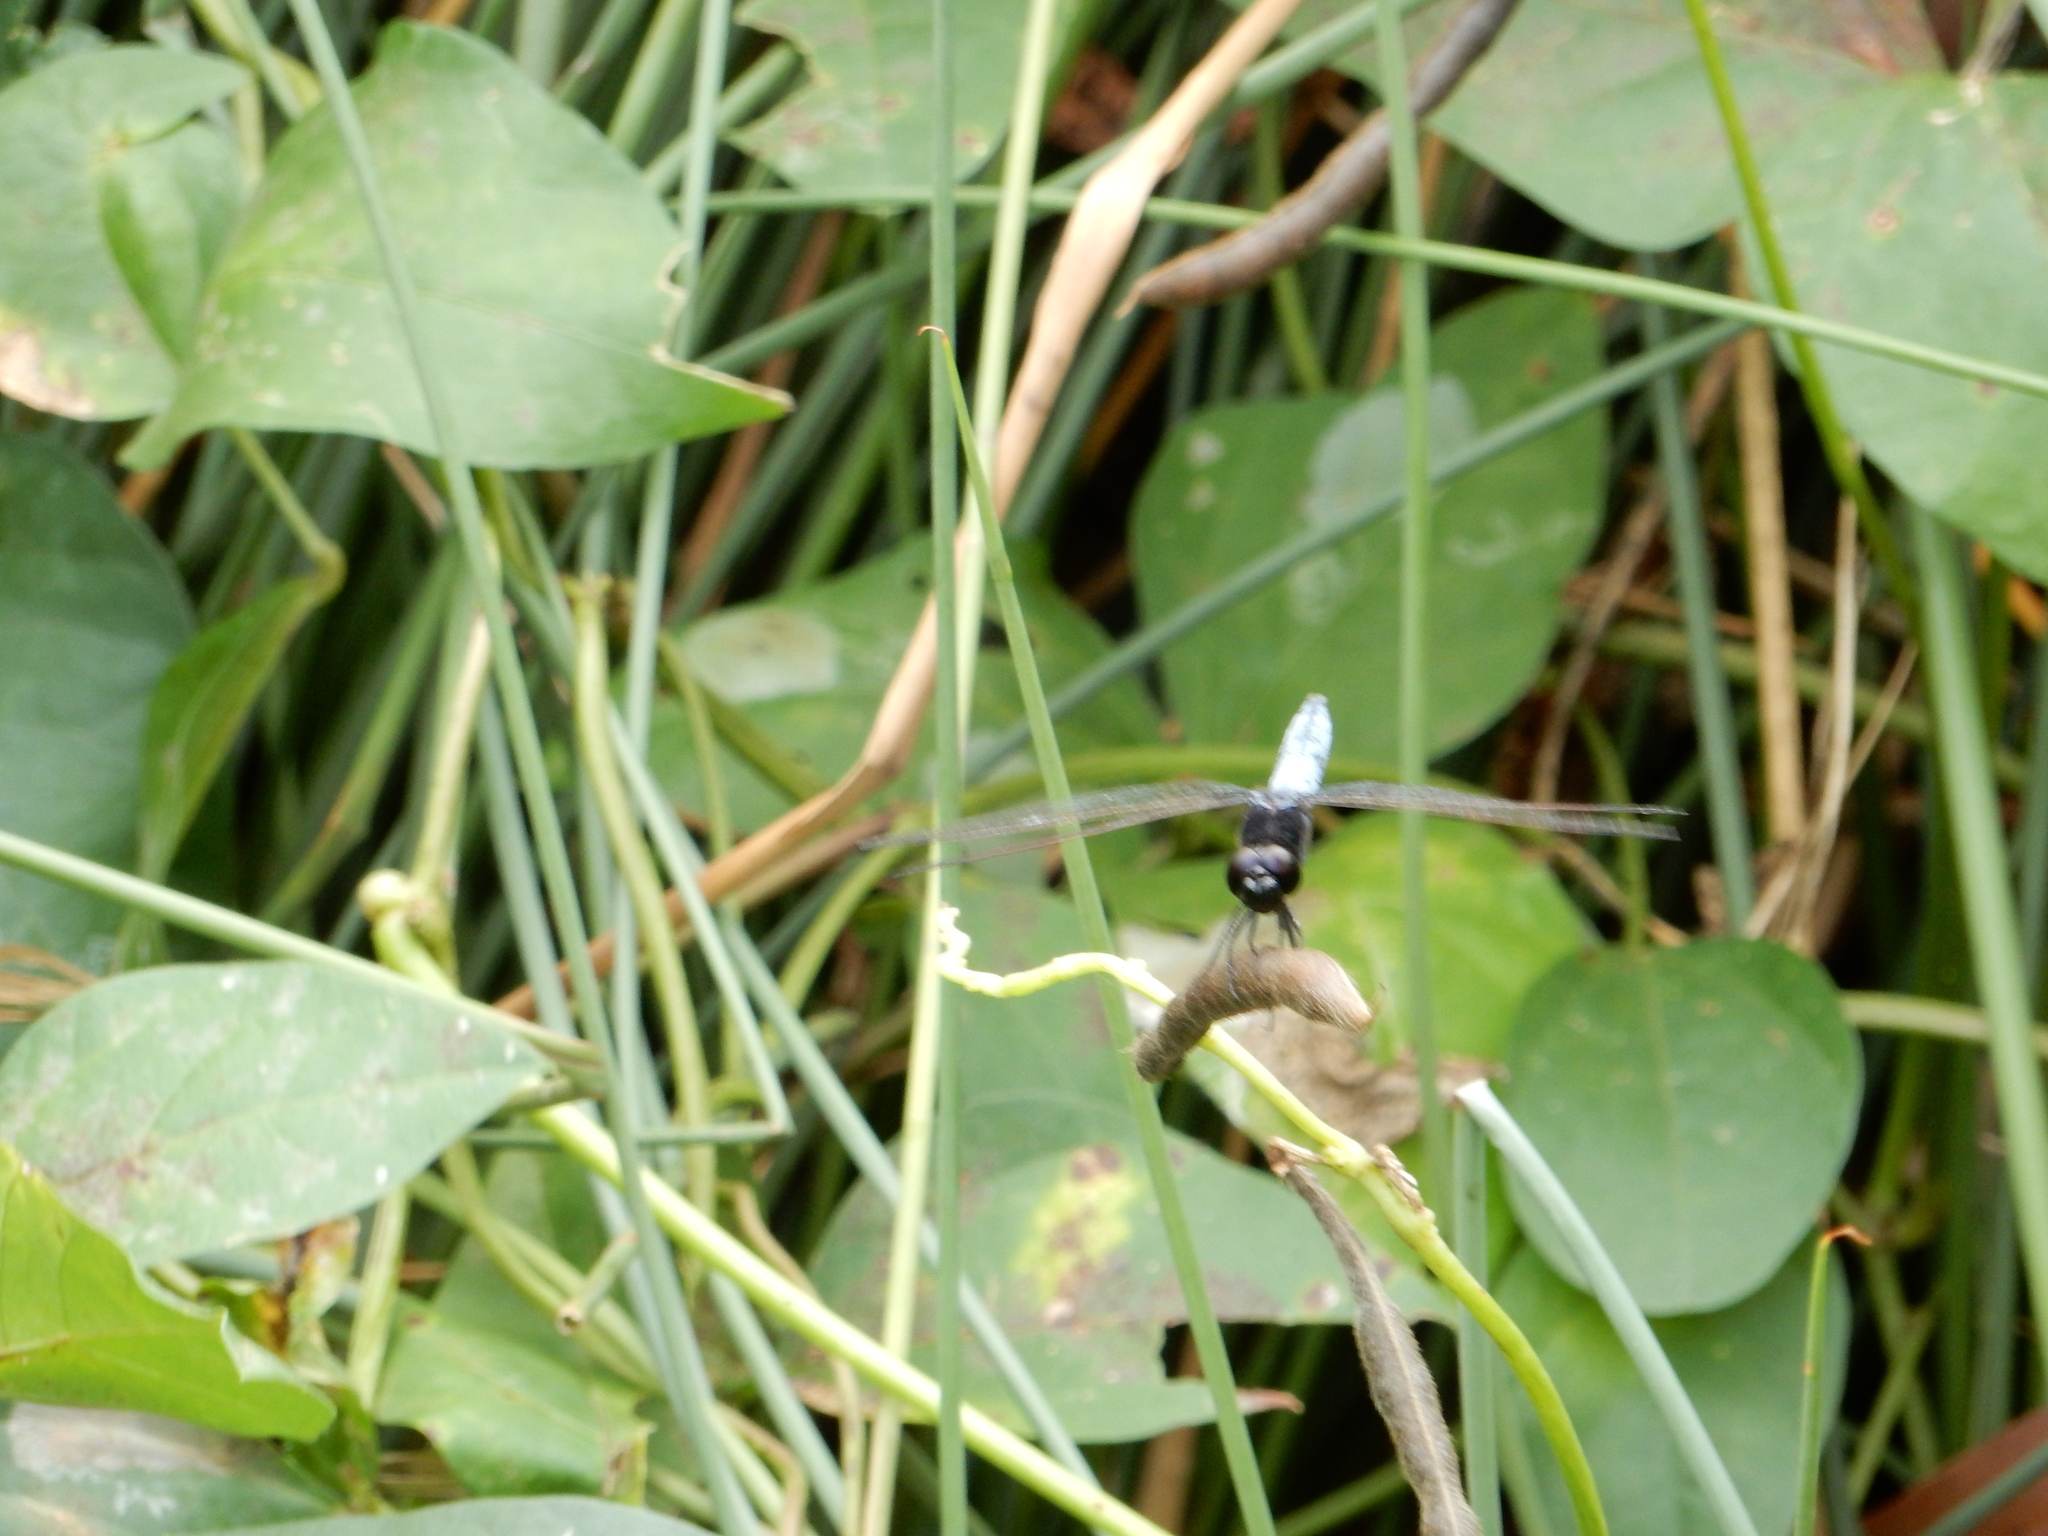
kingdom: Animalia
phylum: Arthropoda
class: Insecta
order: Odonata
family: Libellulidae
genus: Crocothemis
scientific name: Crocothemis nigrifrons
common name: Black-headed skimmer
